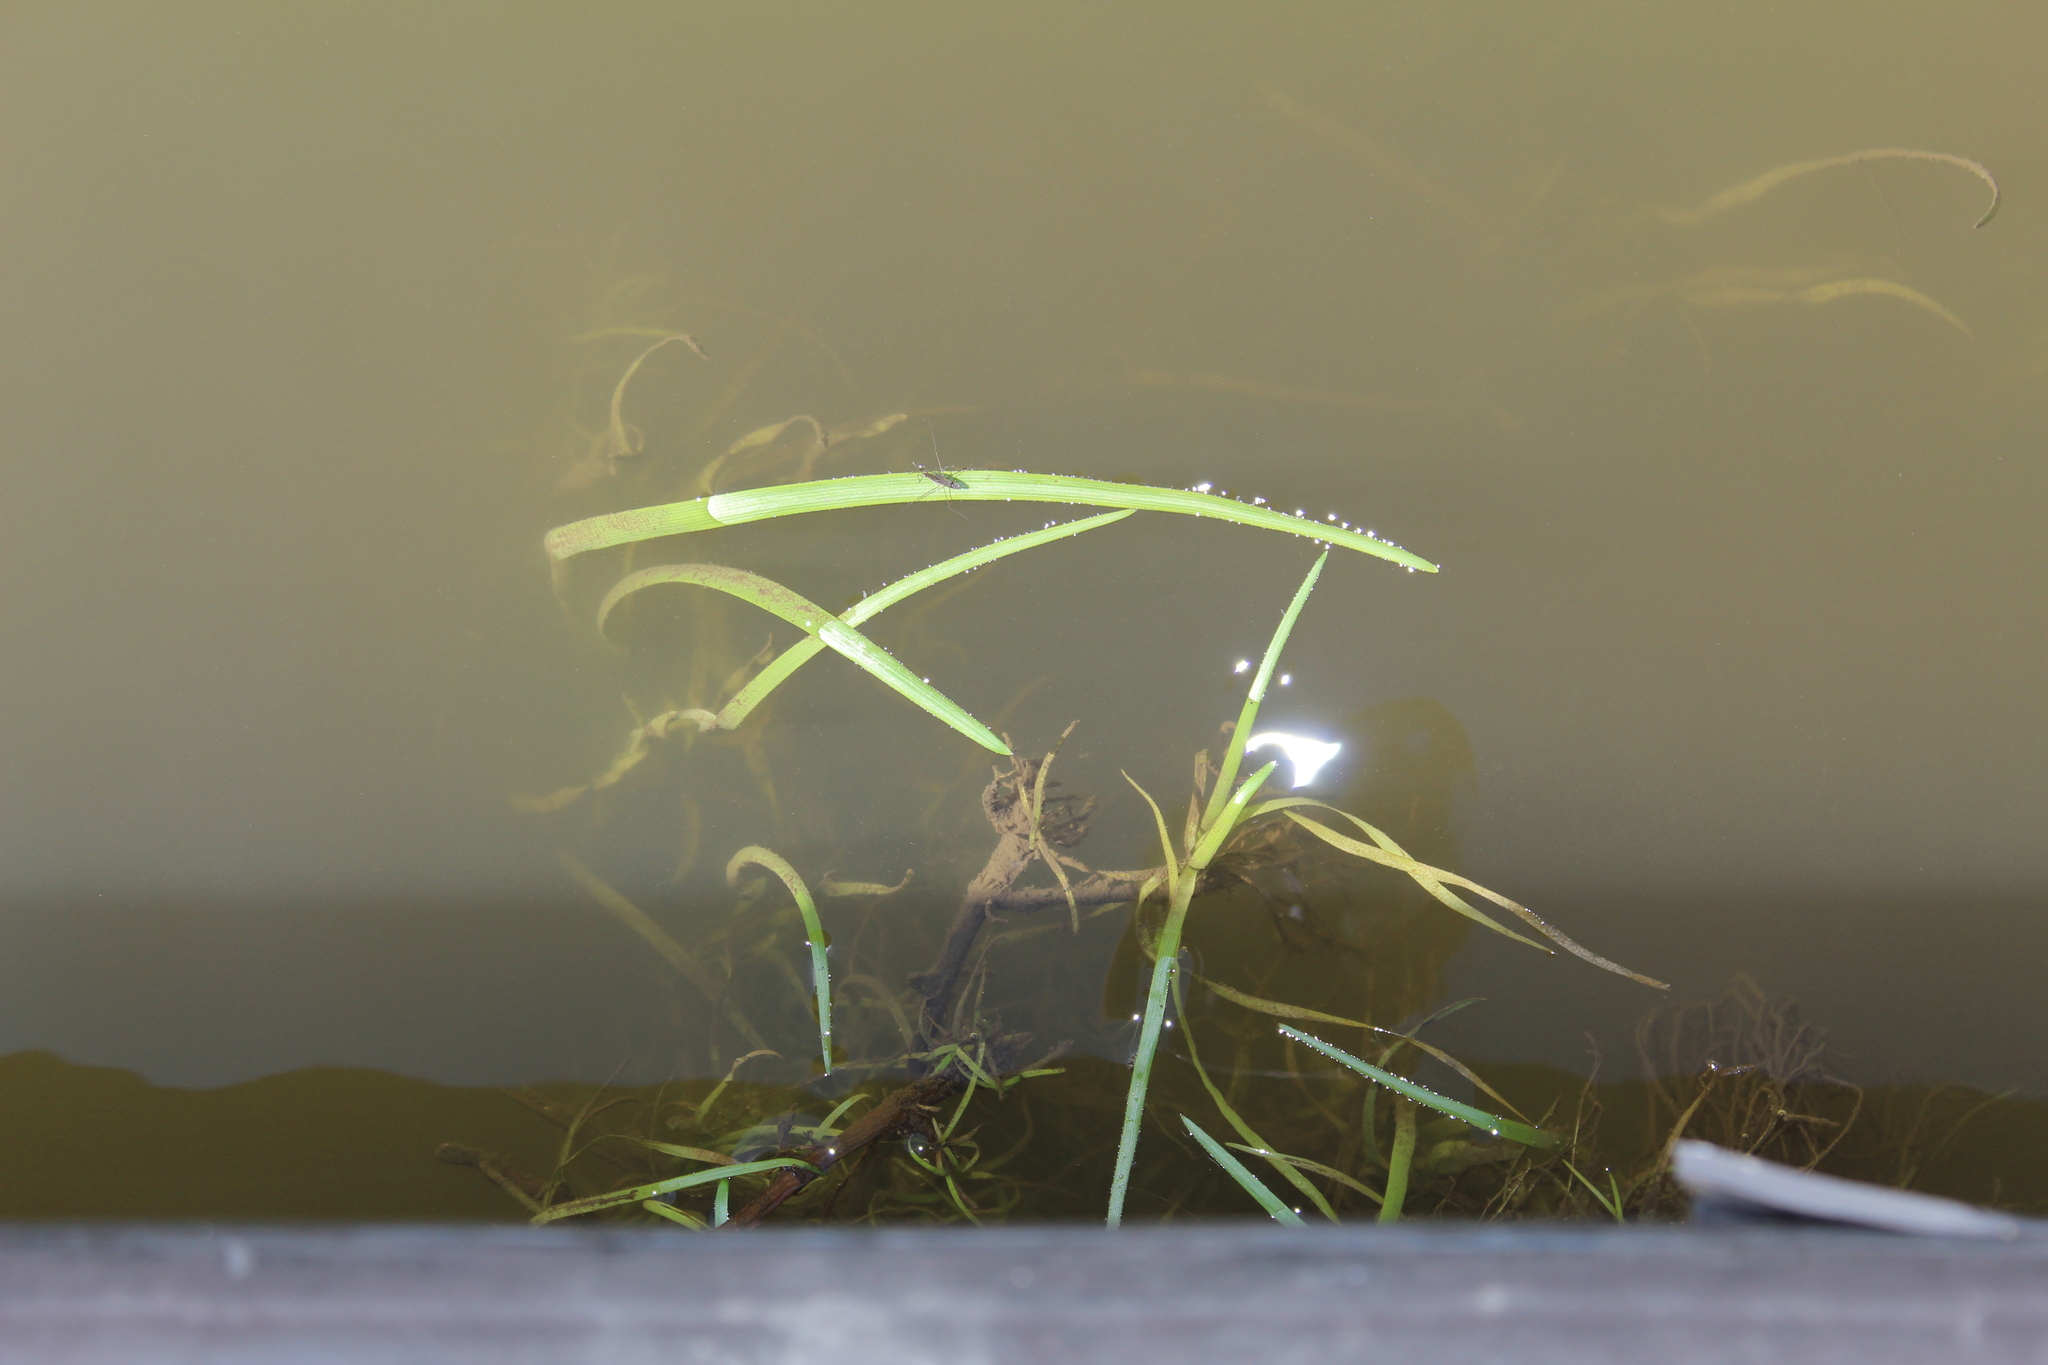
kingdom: Plantae
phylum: Tracheophyta
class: Liliopsida
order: Alismatales
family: Hydrocharitaceae
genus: Vallisneria
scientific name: Vallisneria americana
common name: American eelgrass
